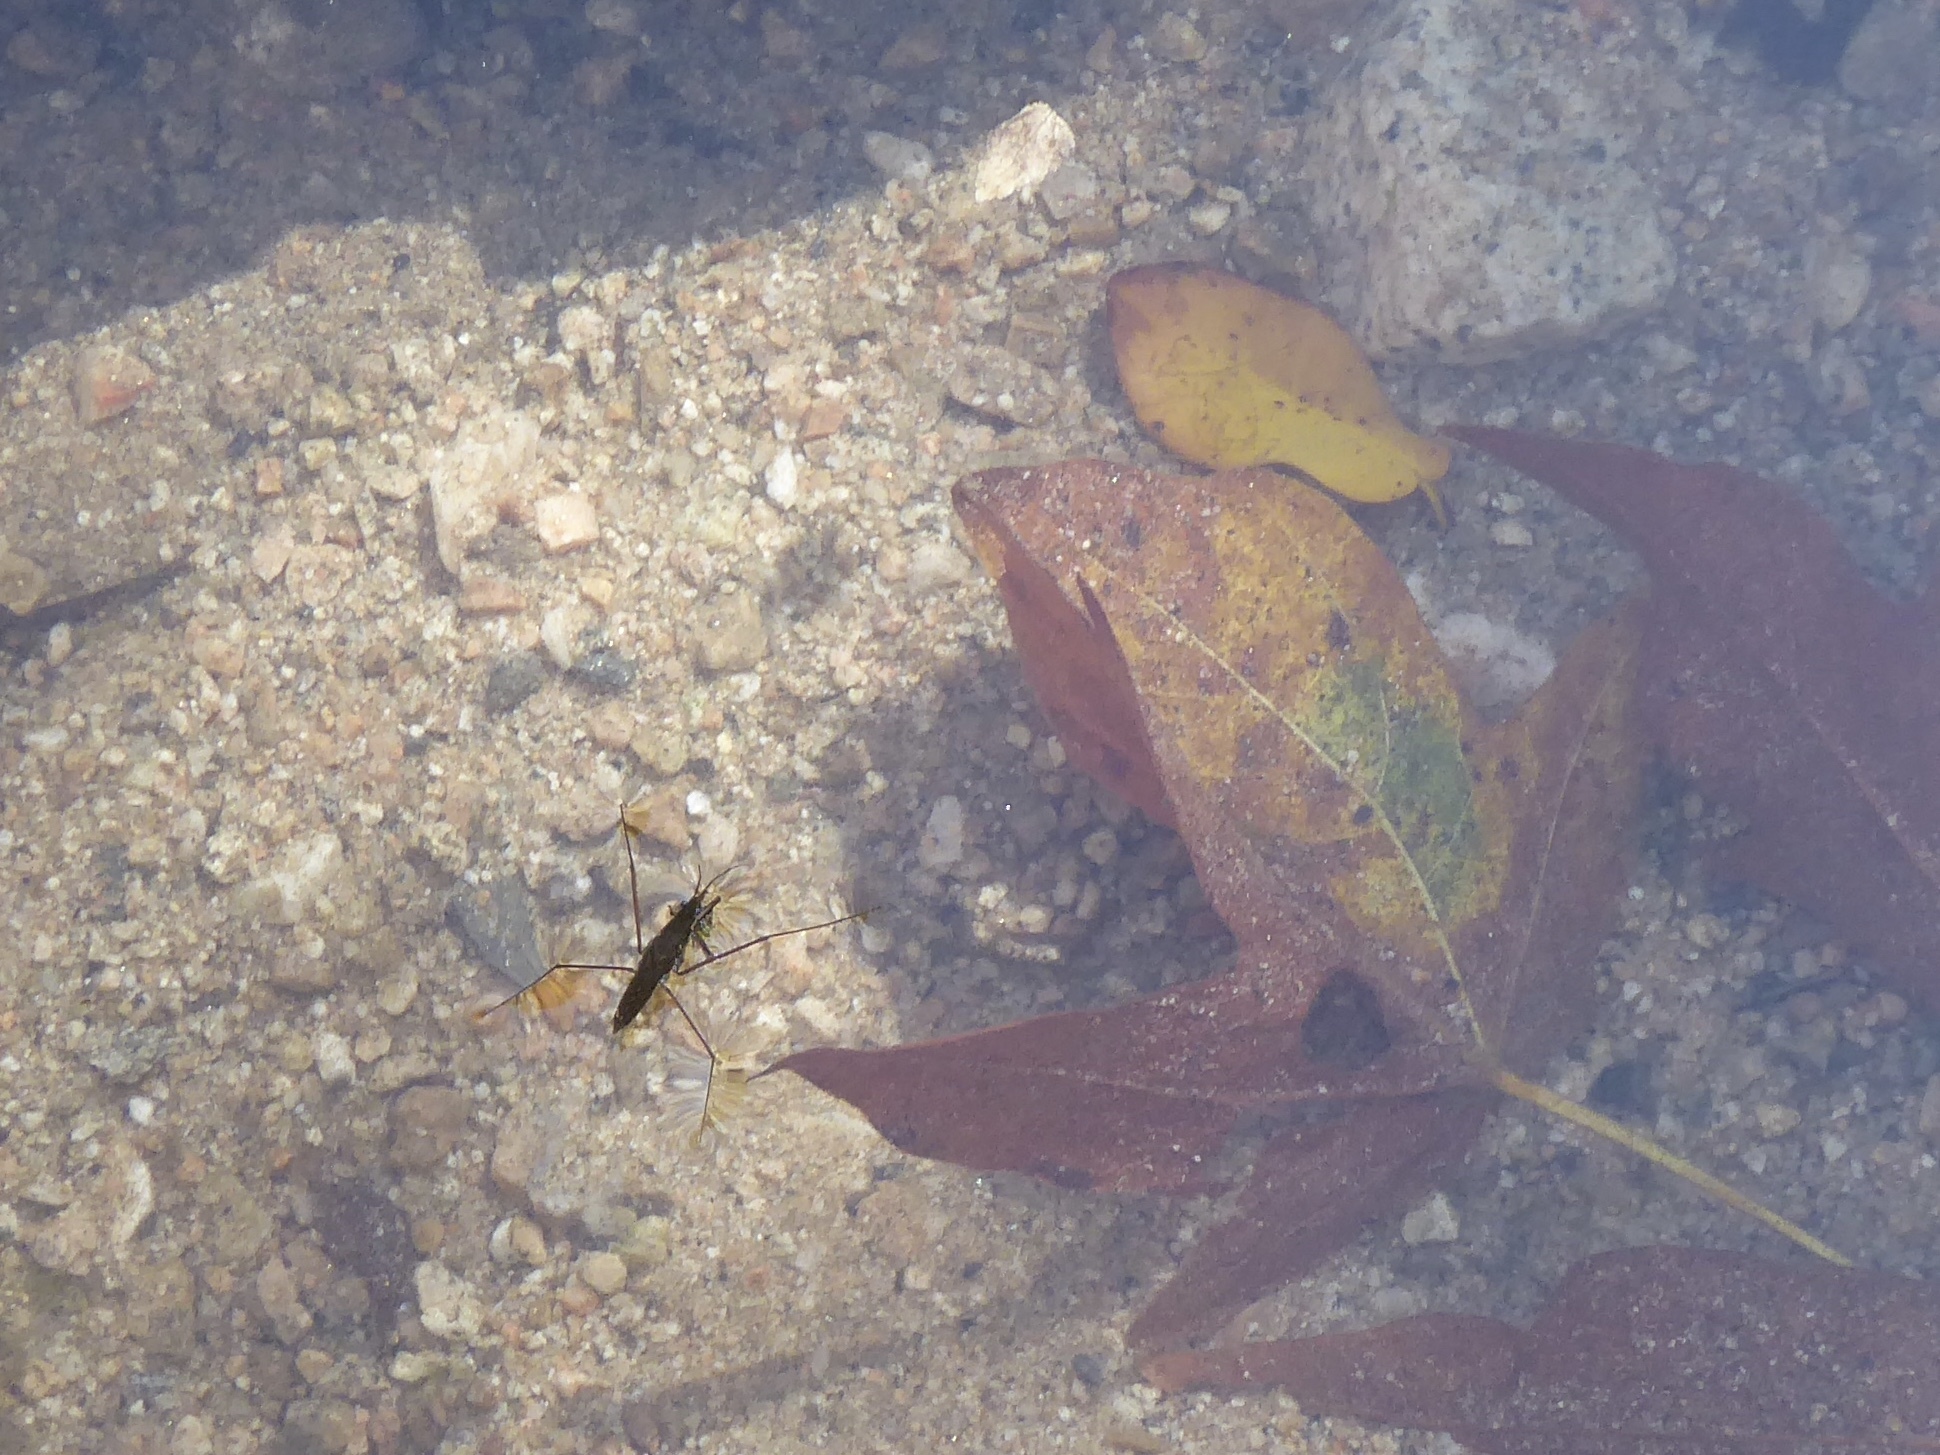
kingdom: Animalia
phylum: Arthropoda
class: Insecta
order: Hemiptera
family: Gerridae
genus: Aquarius
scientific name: Aquarius remigis
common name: Common water strider
